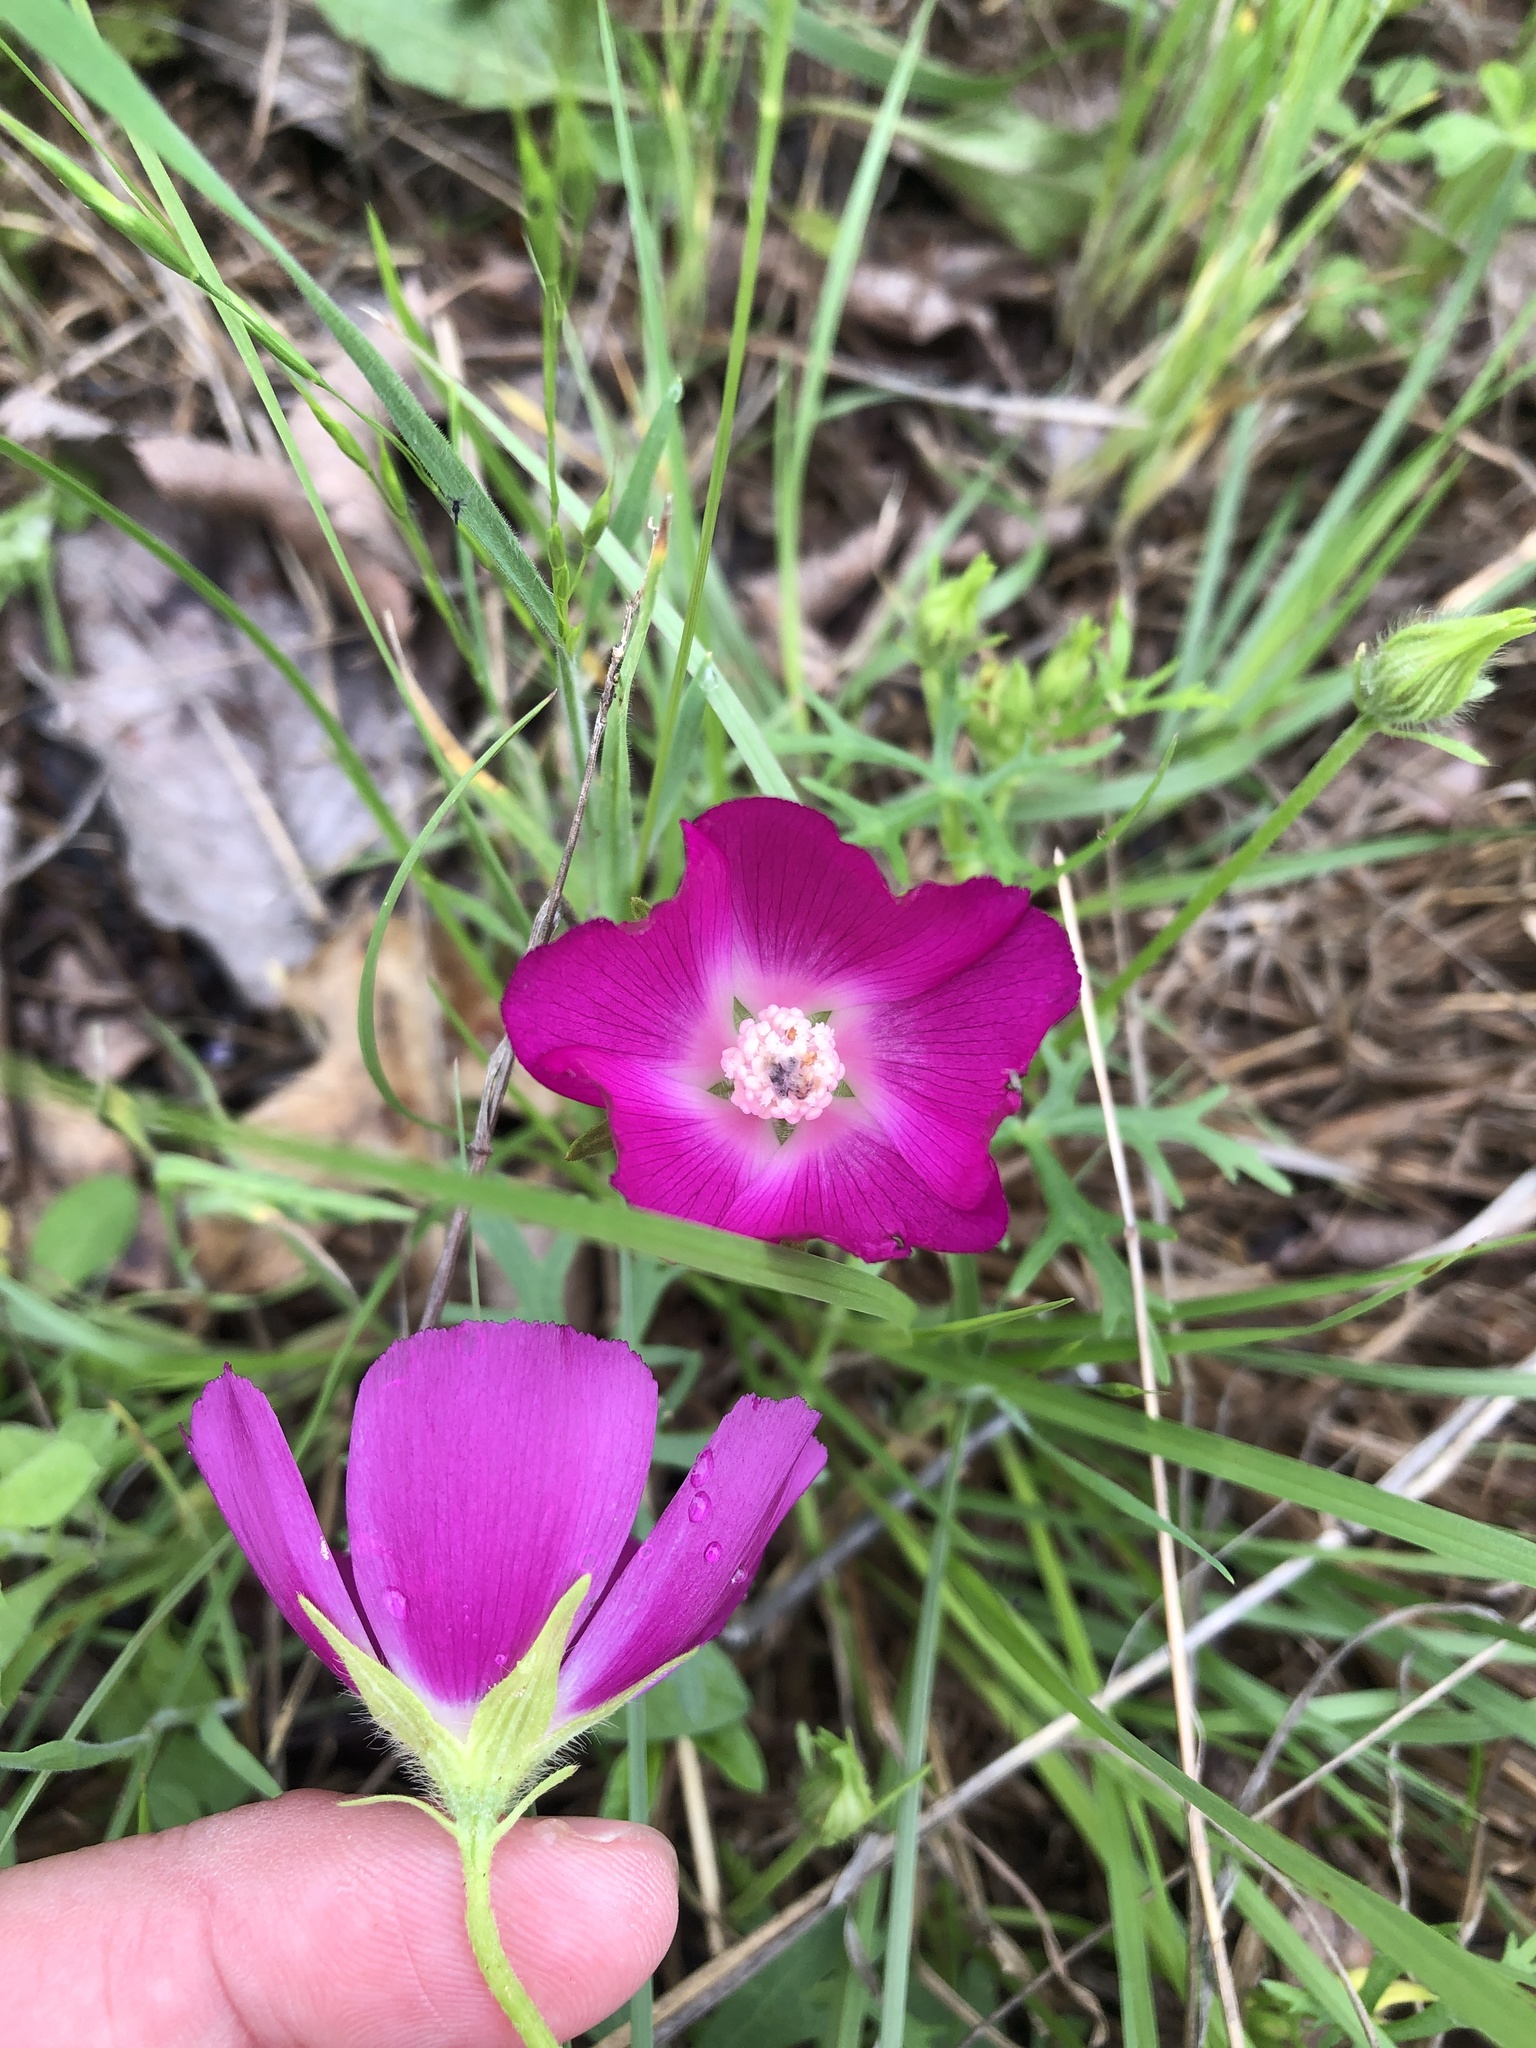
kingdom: Plantae
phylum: Tracheophyta
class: Magnoliopsida
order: Malvales
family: Malvaceae
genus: Callirhoe
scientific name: Callirhoe involucrata
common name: Purple poppy-mallow
